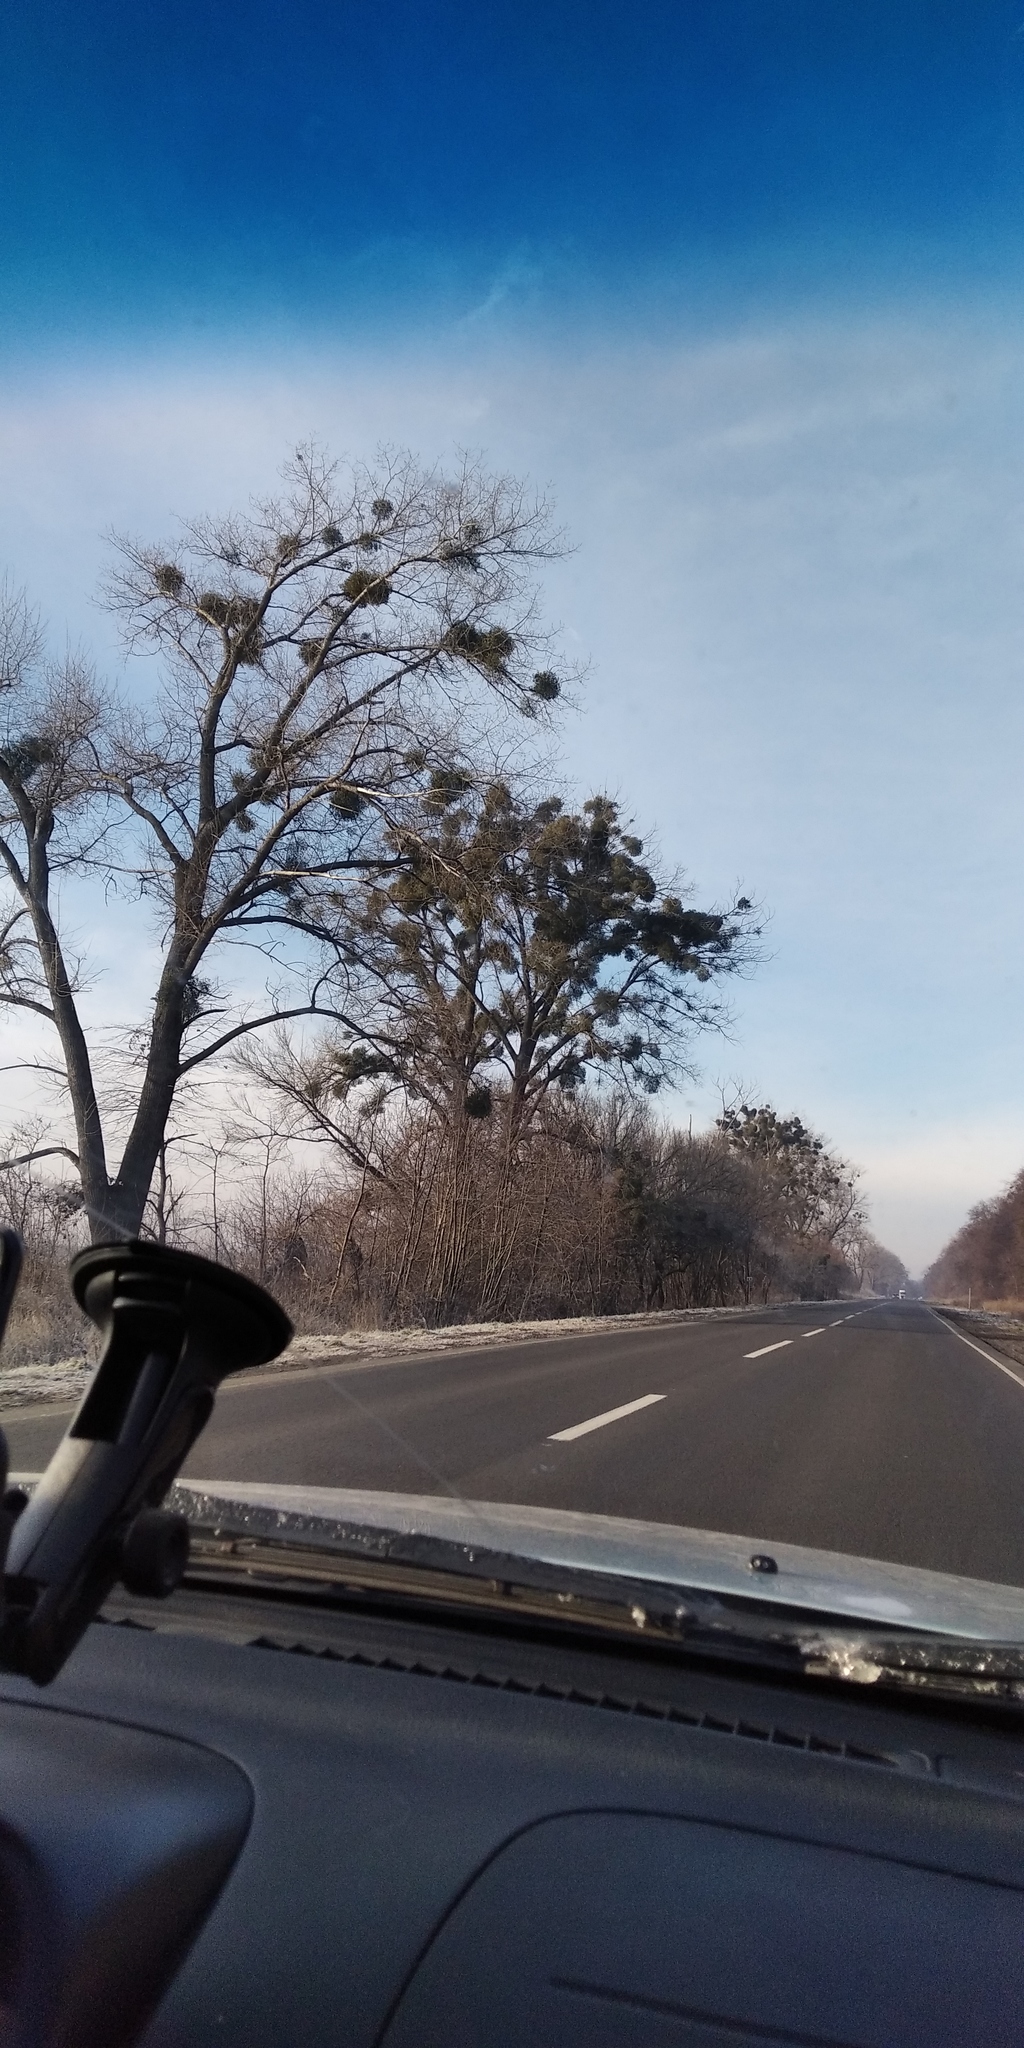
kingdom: Plantae
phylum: Tracheophyta
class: Magnoliopsida
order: Santalales
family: Viscaceae
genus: Viscum
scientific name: Viscum album
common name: Mistletoe
